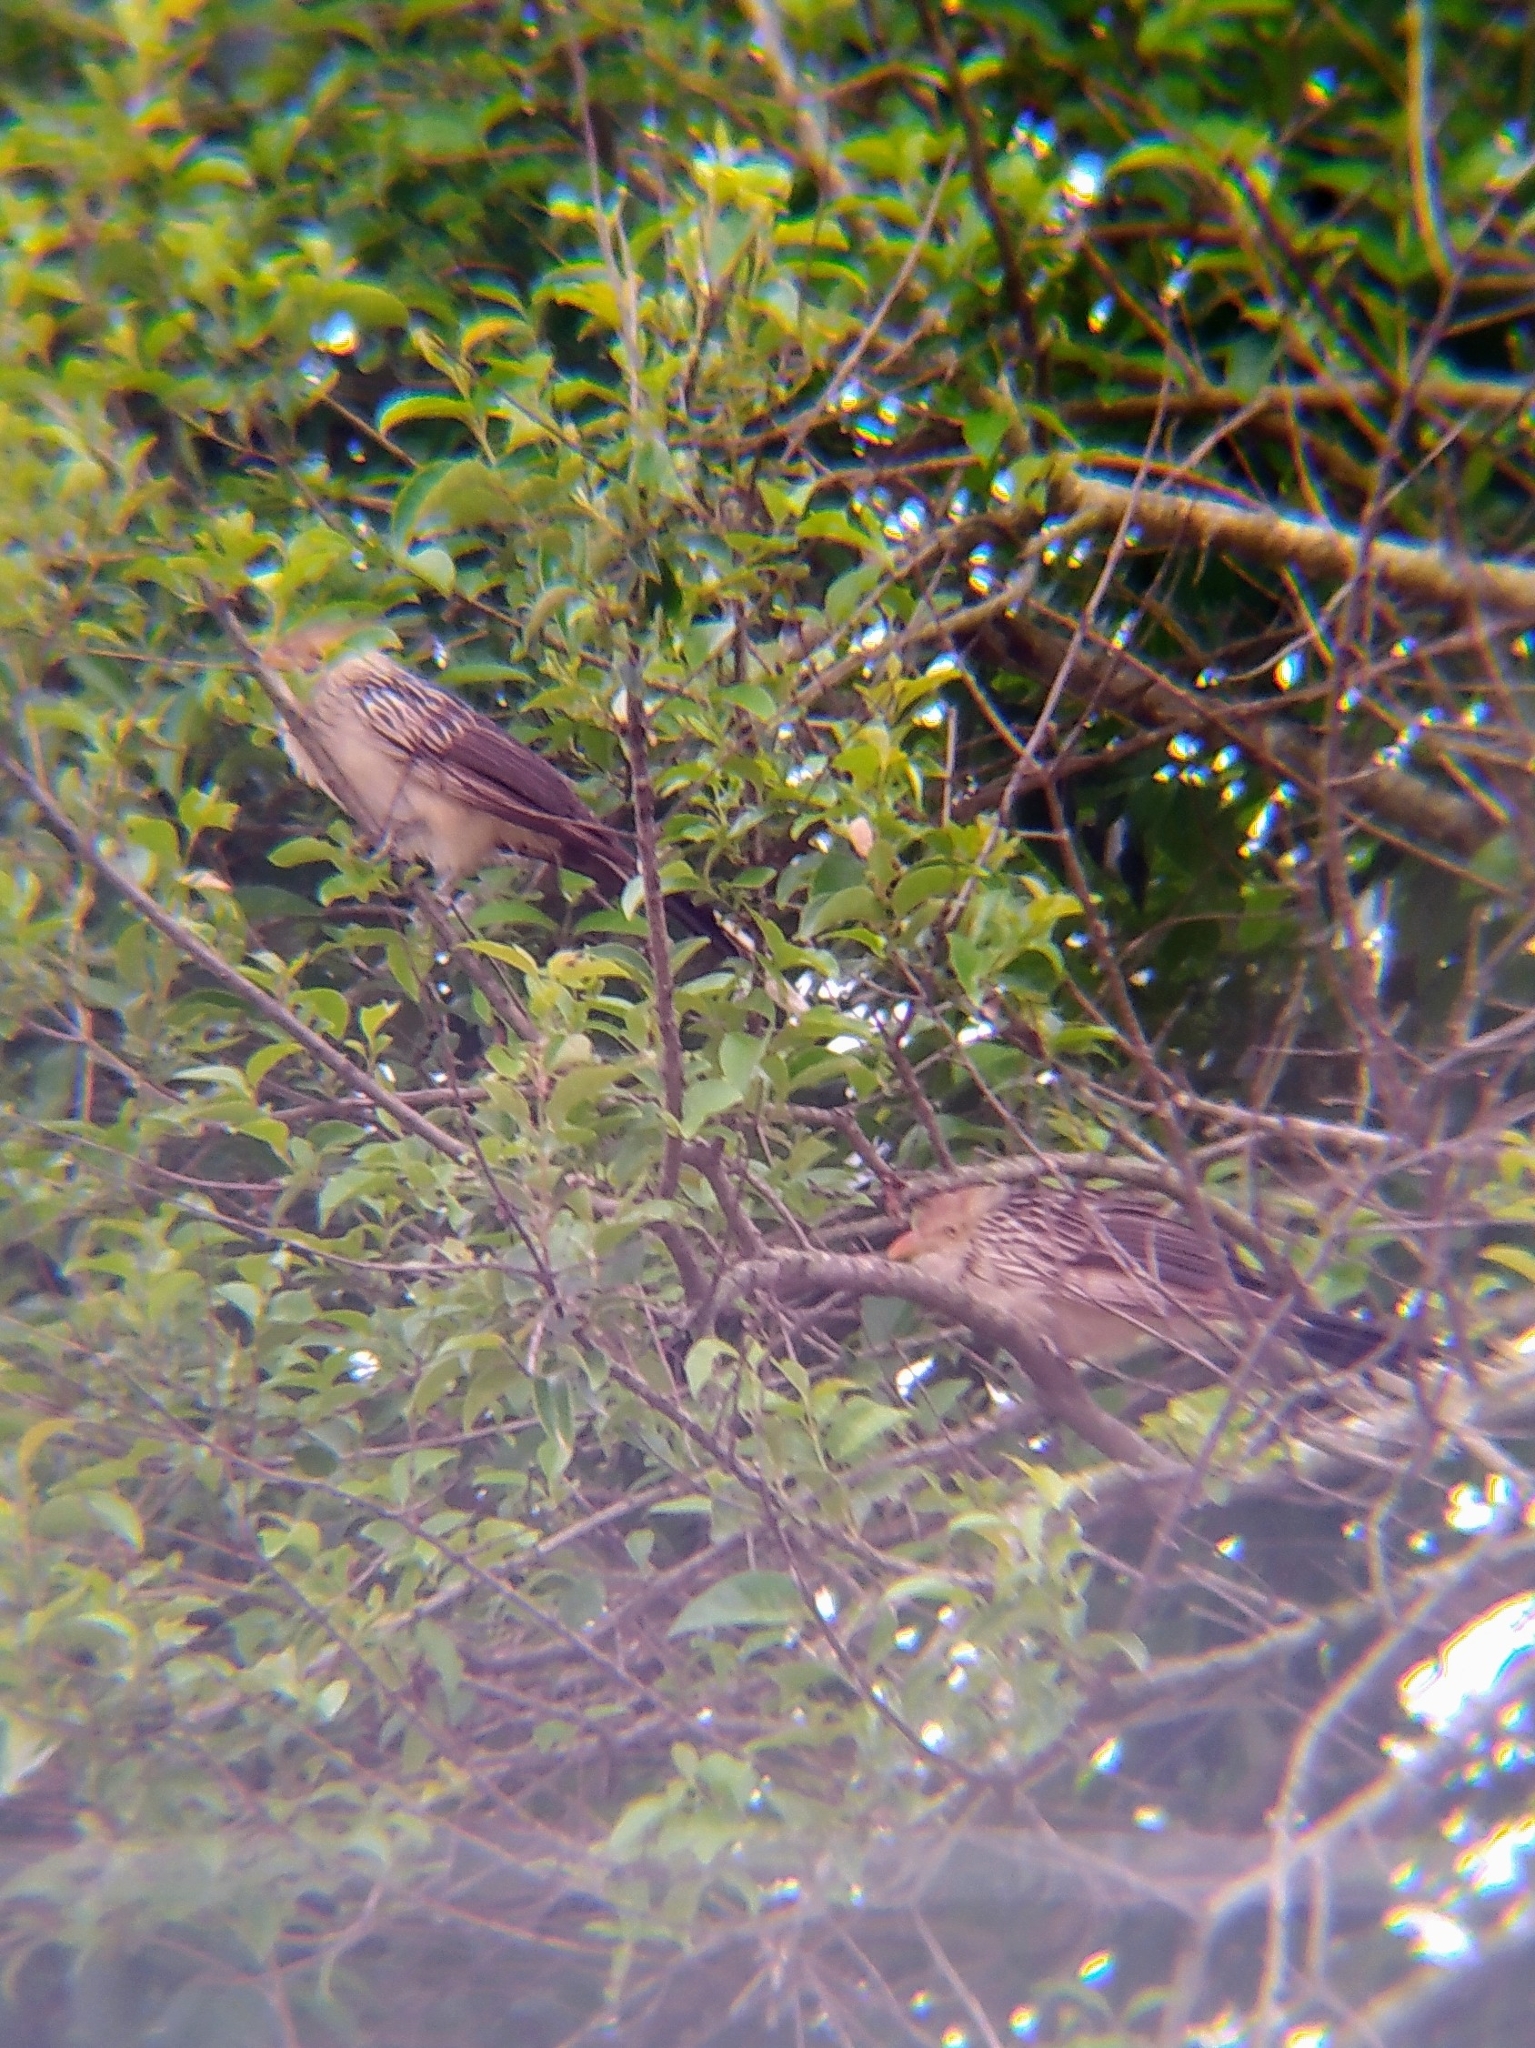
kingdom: Animalia
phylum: Chordata
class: Aves
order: Cuculiformes
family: Cuculidae
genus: Guira
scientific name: Guira guira
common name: Guira cuckoo
